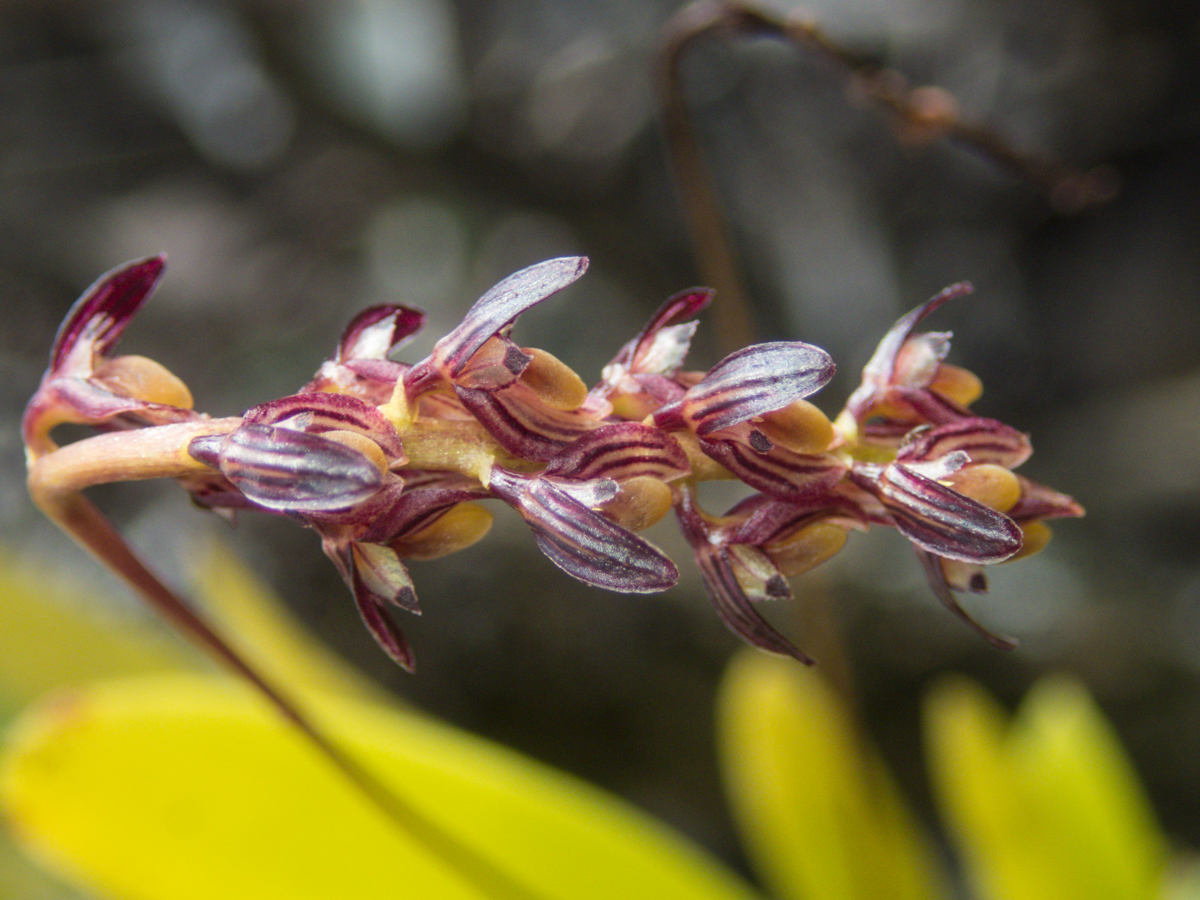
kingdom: Plantae
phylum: Tracheophyta
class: Liliopsida
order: Asparagales
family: Orchidaceae
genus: Bulbophyllum
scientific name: Bulbophyllum alcicorne
